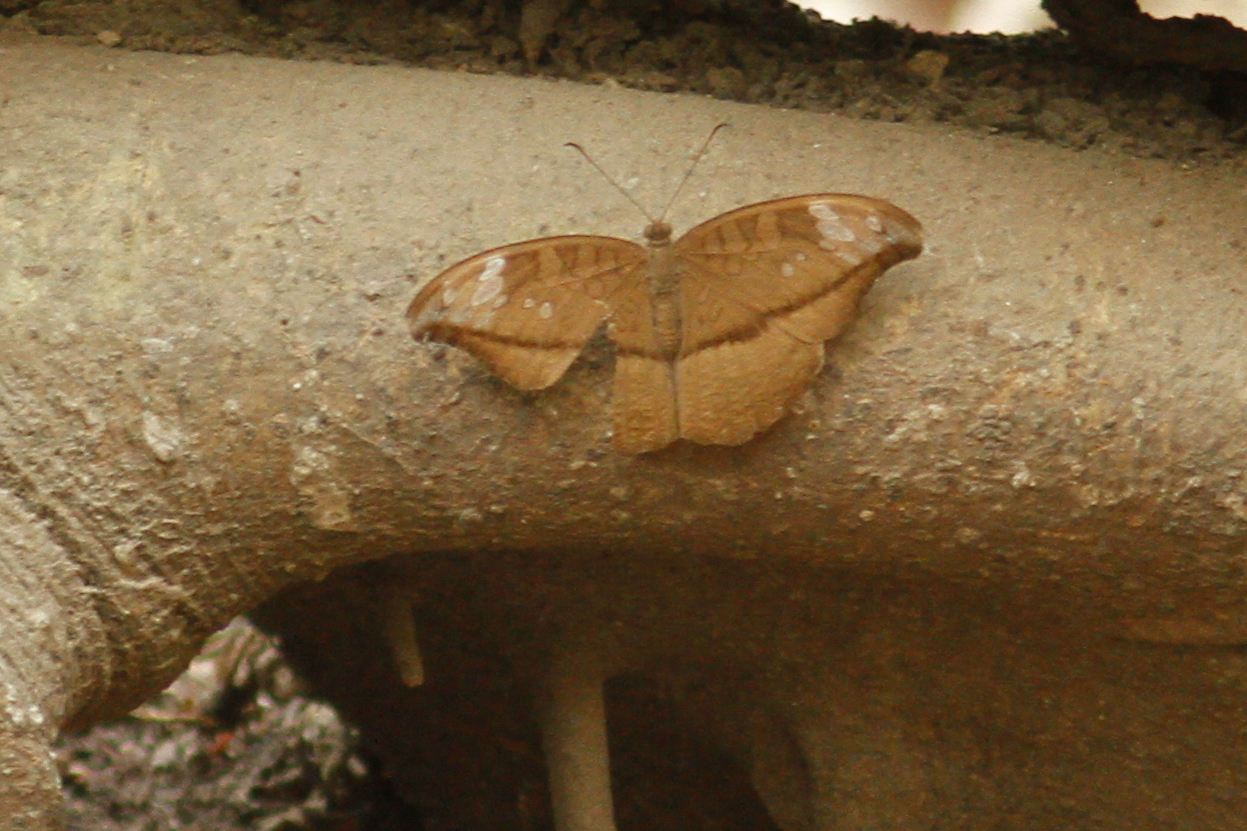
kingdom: Animalia
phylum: Arthropoda
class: Insecta
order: Lepidoptera
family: Nymphalidae
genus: Tanaecia
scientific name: Tanaecia cocytus
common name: Lavender count
